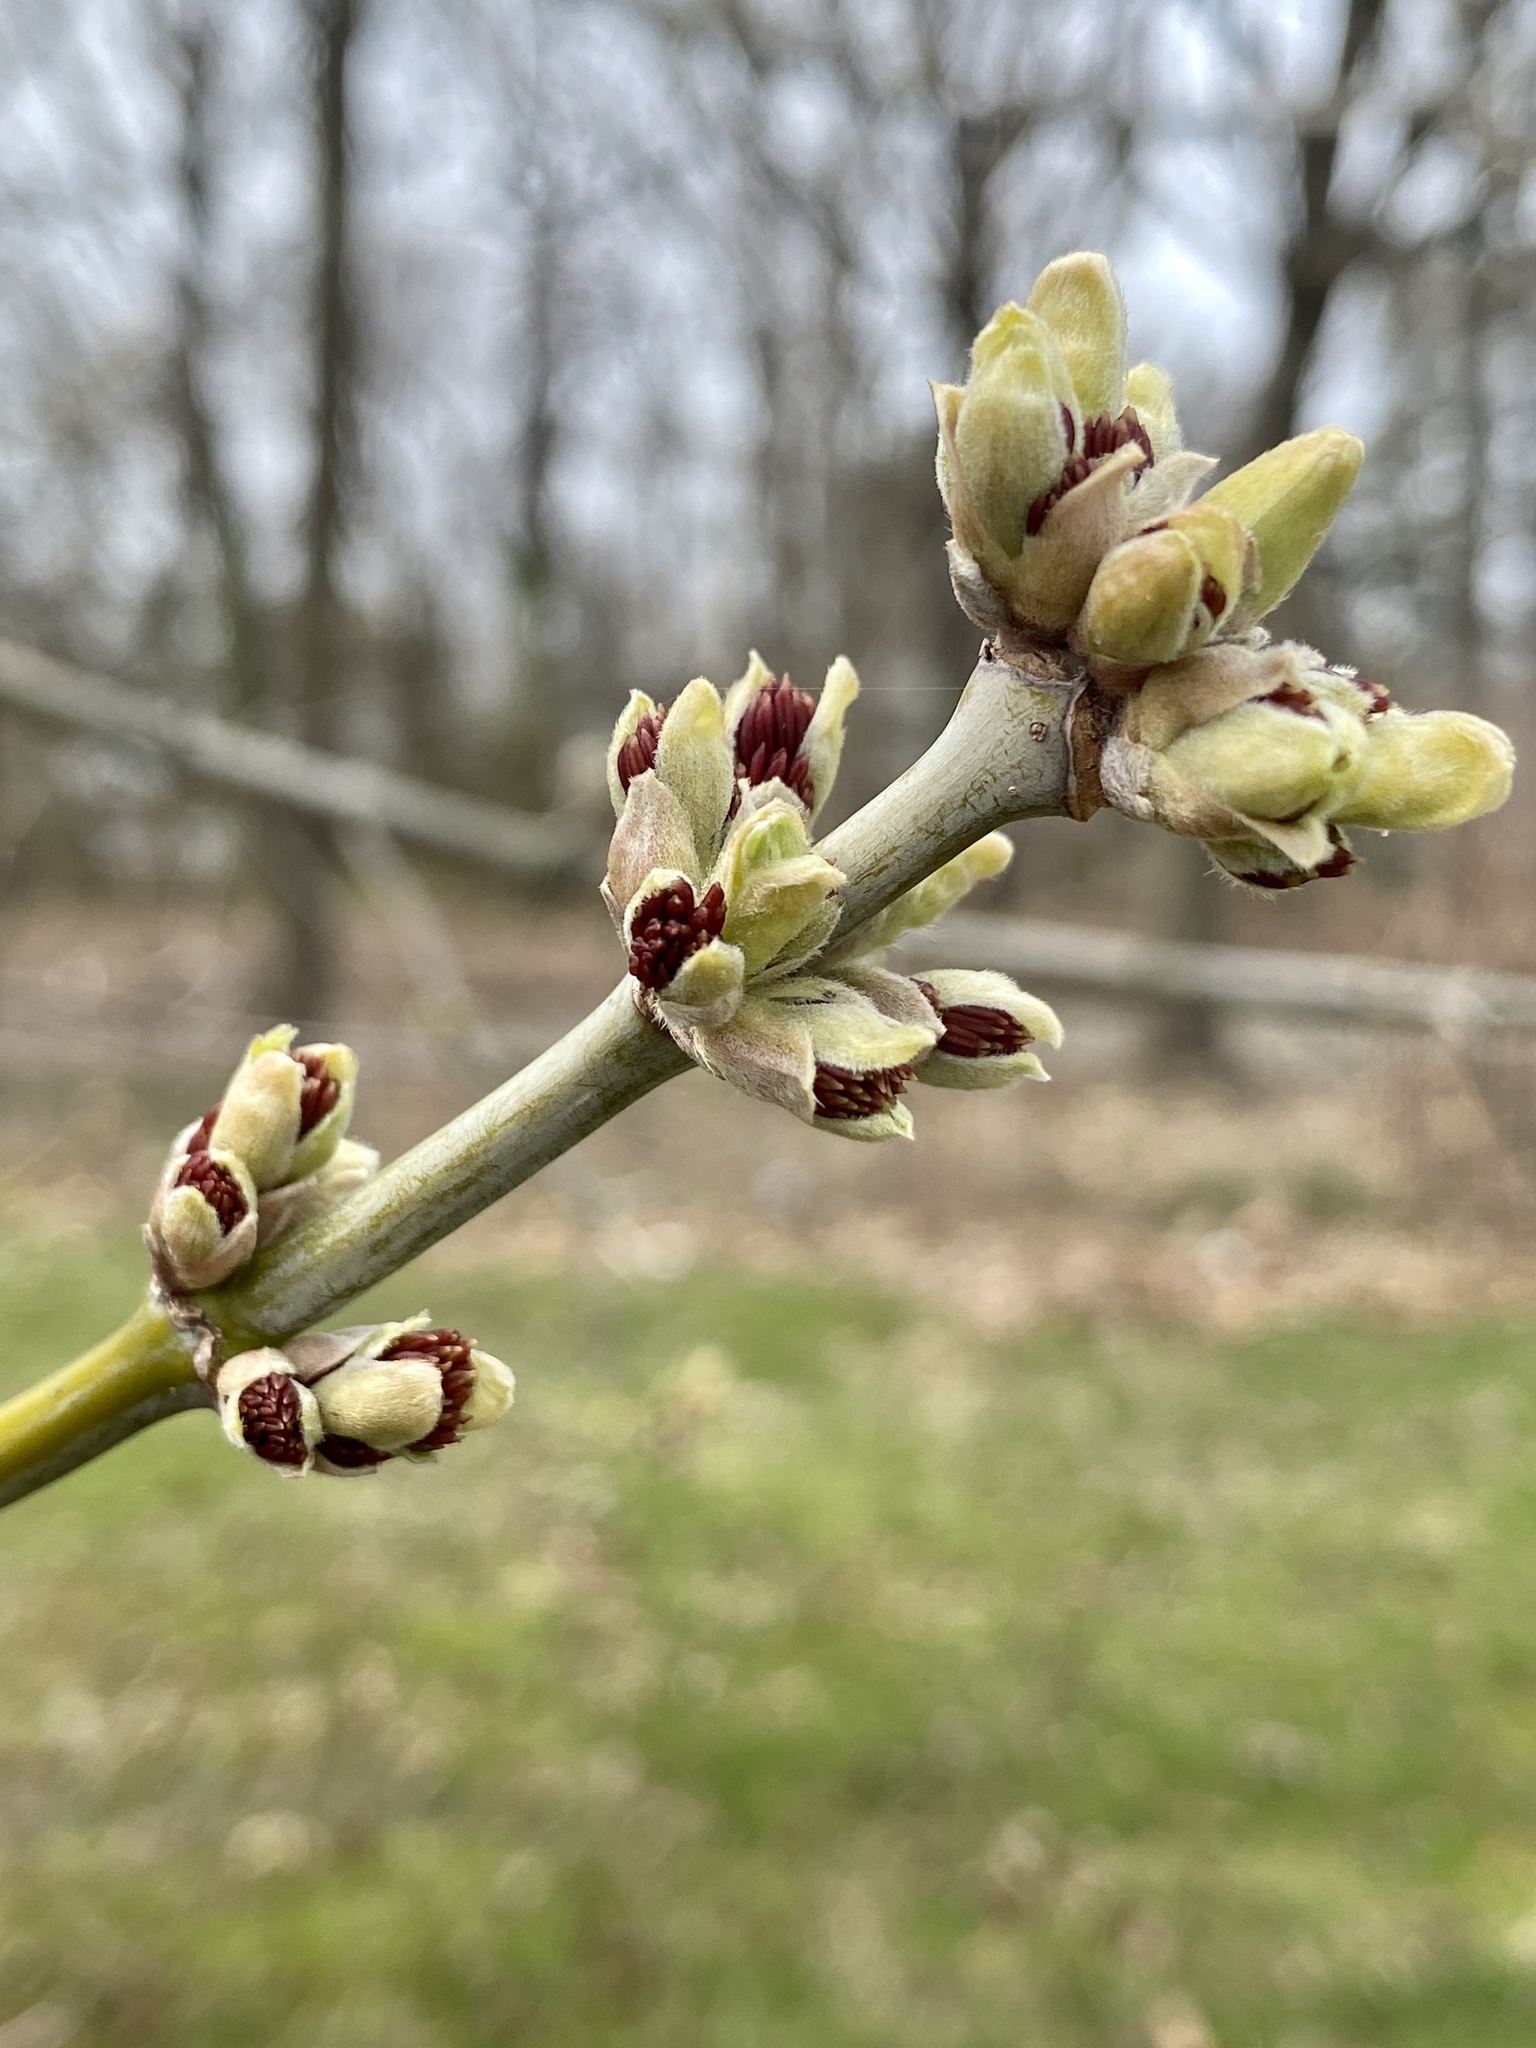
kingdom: Plantae
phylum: Tracheophyta
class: Magnoliopsida
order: Sapindales
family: Sapindaceae
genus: Acer
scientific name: Acer negundo
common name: Ashleaf maple
